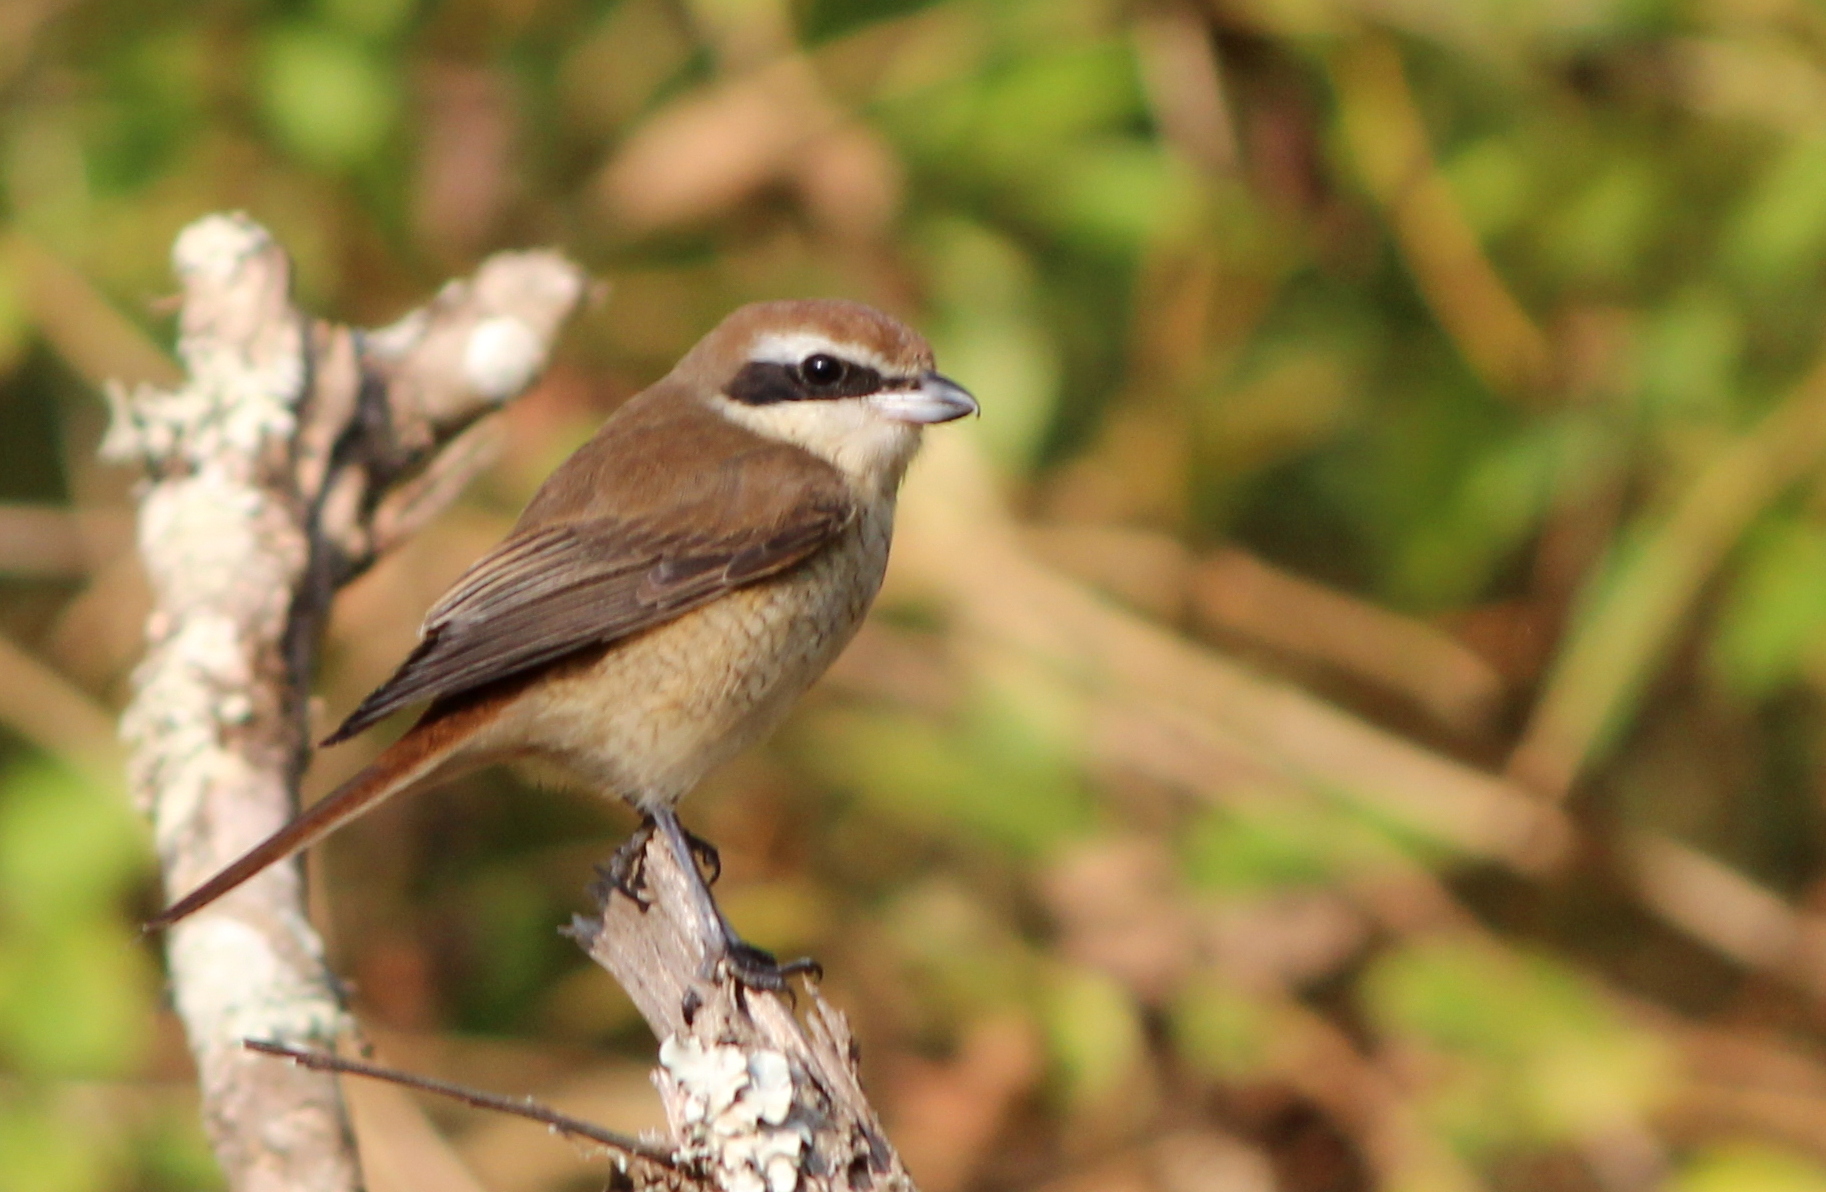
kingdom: Animalia
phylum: Chordata
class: Aves
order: Passeriformes
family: Laniidae
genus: Lanius
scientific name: Lanius cristatus
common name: Brown shrike
